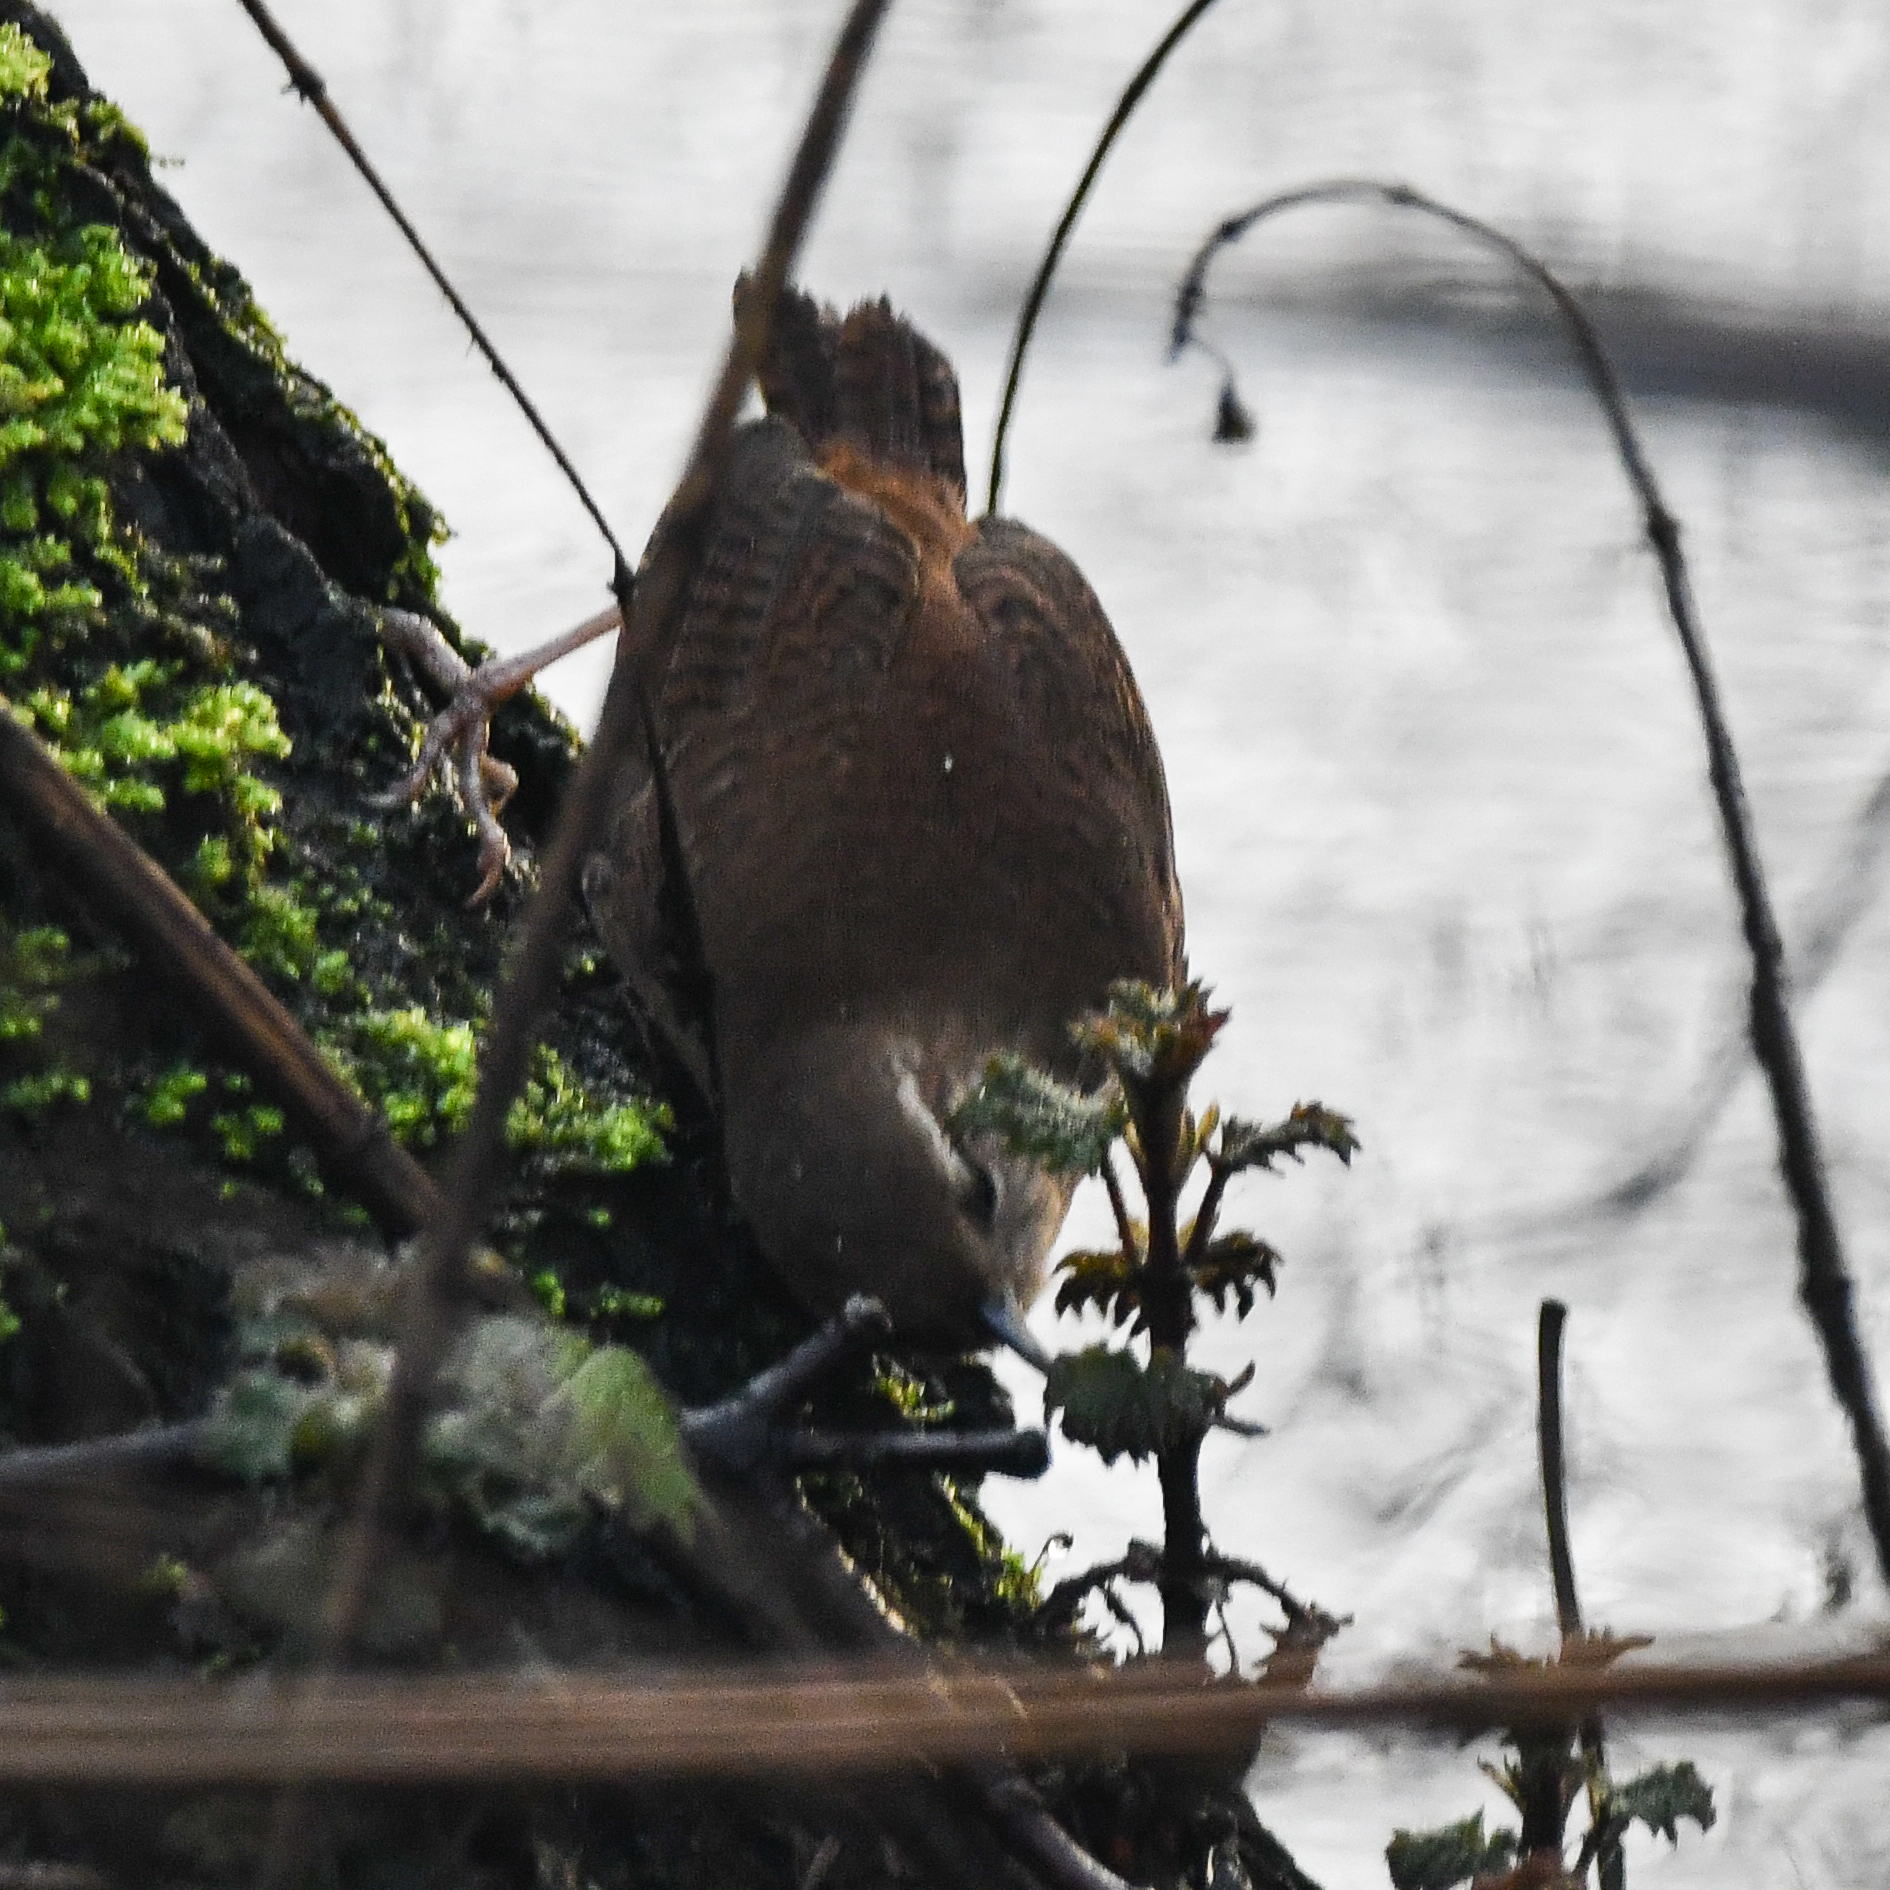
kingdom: Animalia
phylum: Chordata
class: Aves
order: Passeriformes
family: Troglodytidae
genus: Troglodytes
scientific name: Troglodytes troglodytes
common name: Eurasian wren
